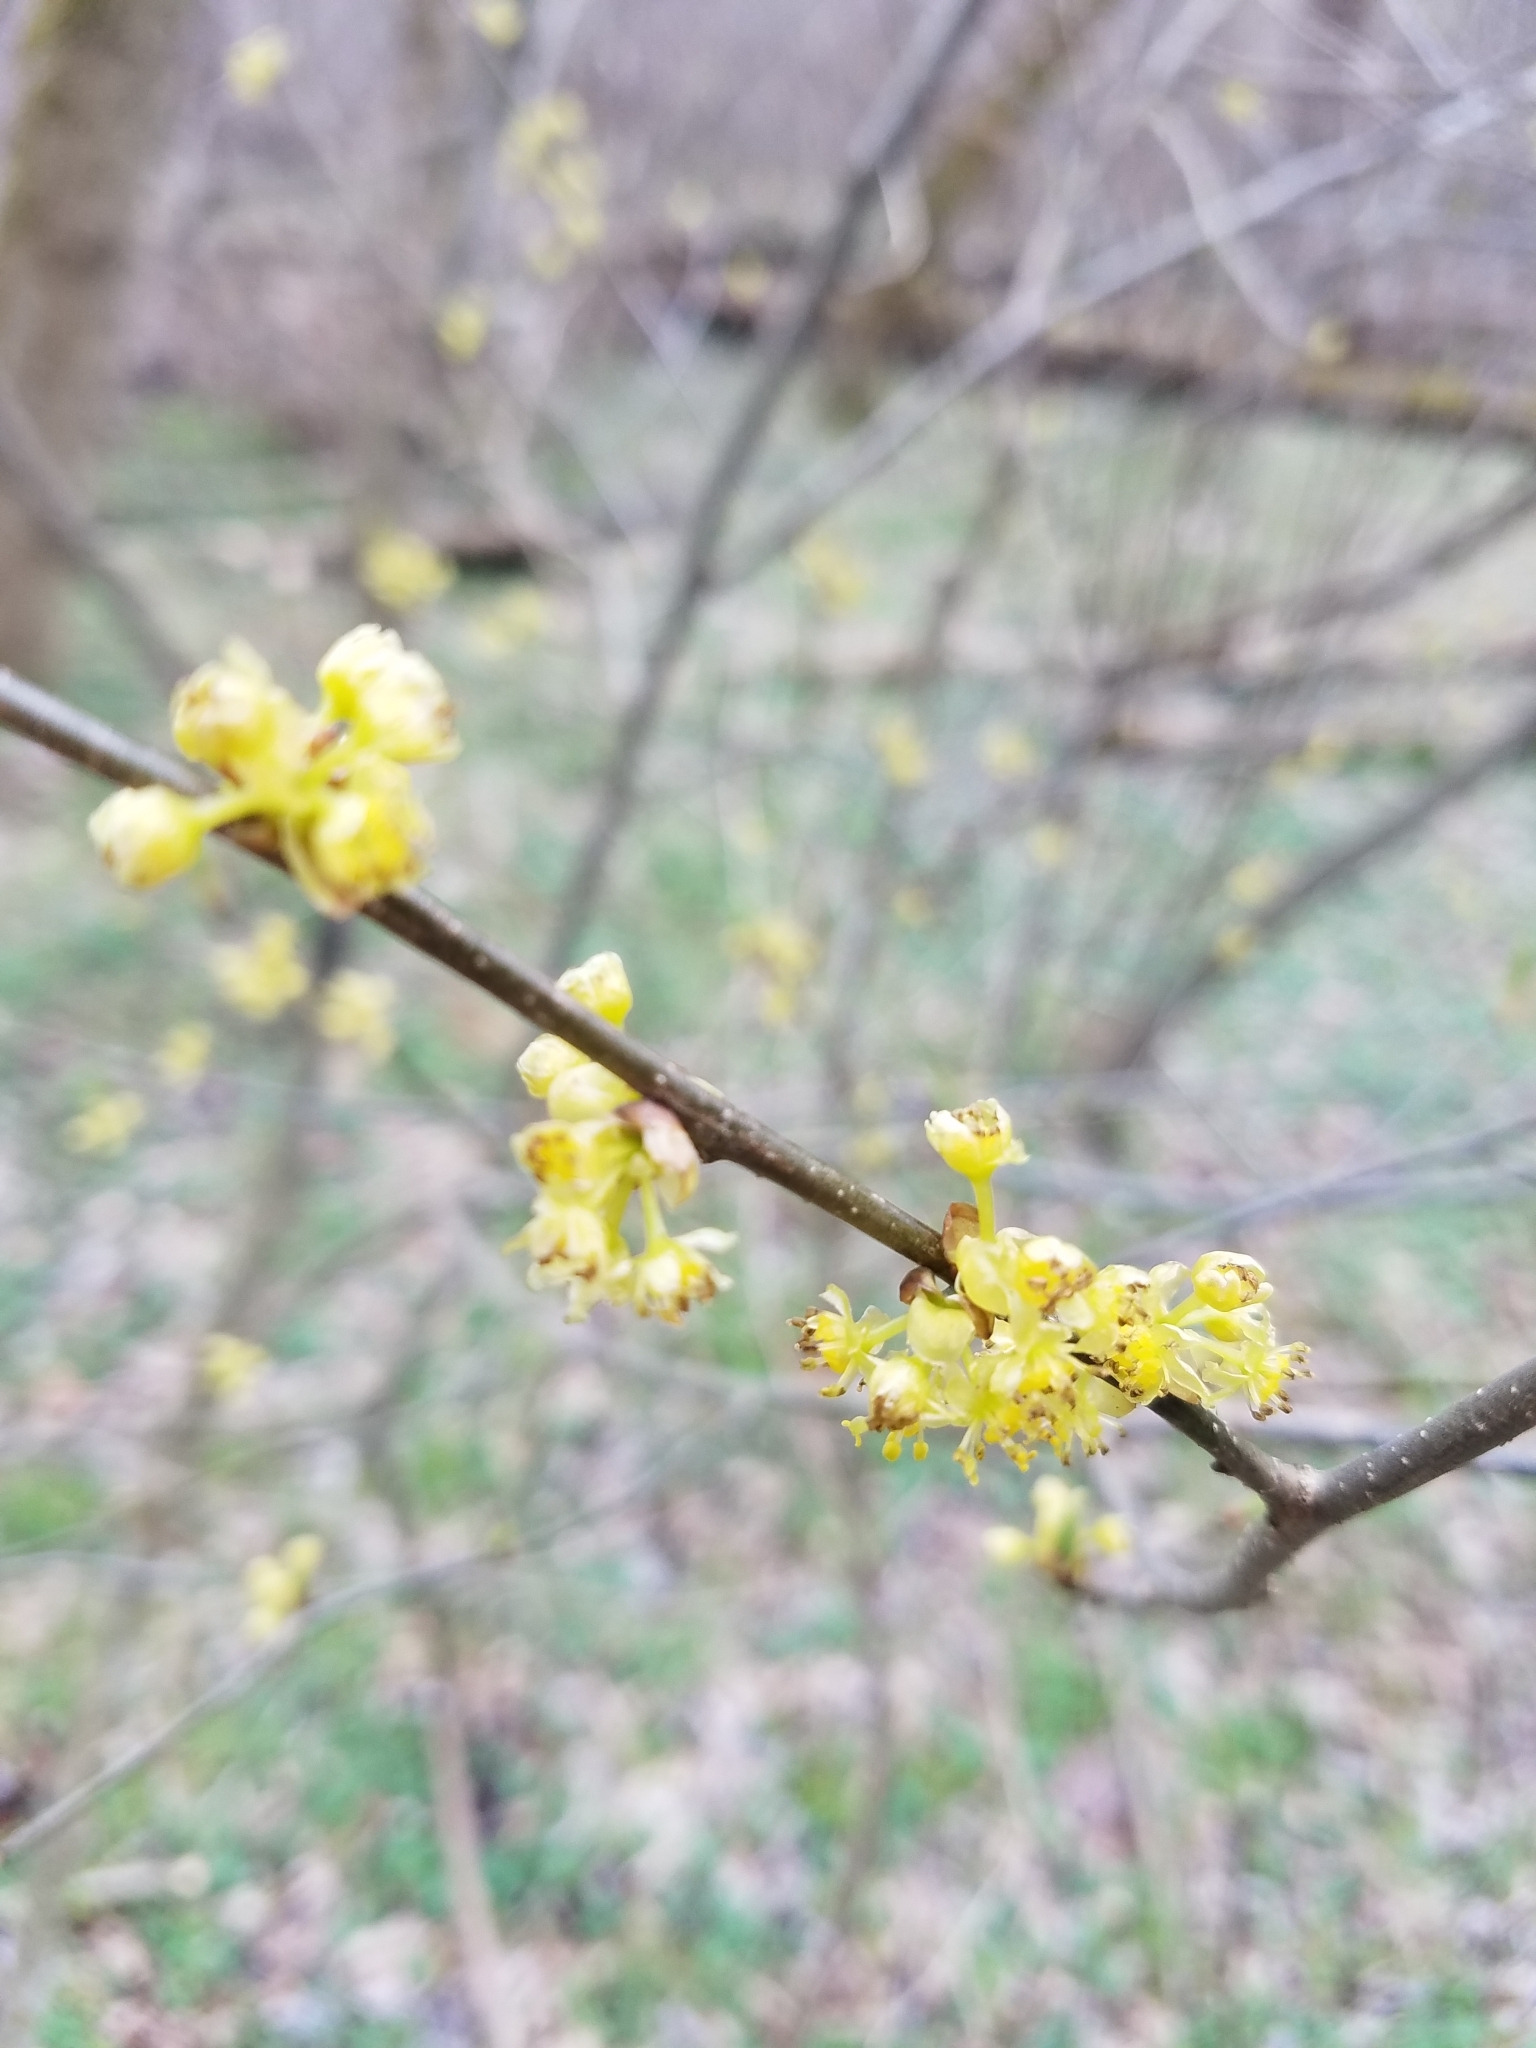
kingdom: Plantae
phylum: Tracheophyta
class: Magnoliopsida
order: Laurales
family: Lauraceae
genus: Lindera
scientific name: Lindera benzoin
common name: Spicebush
